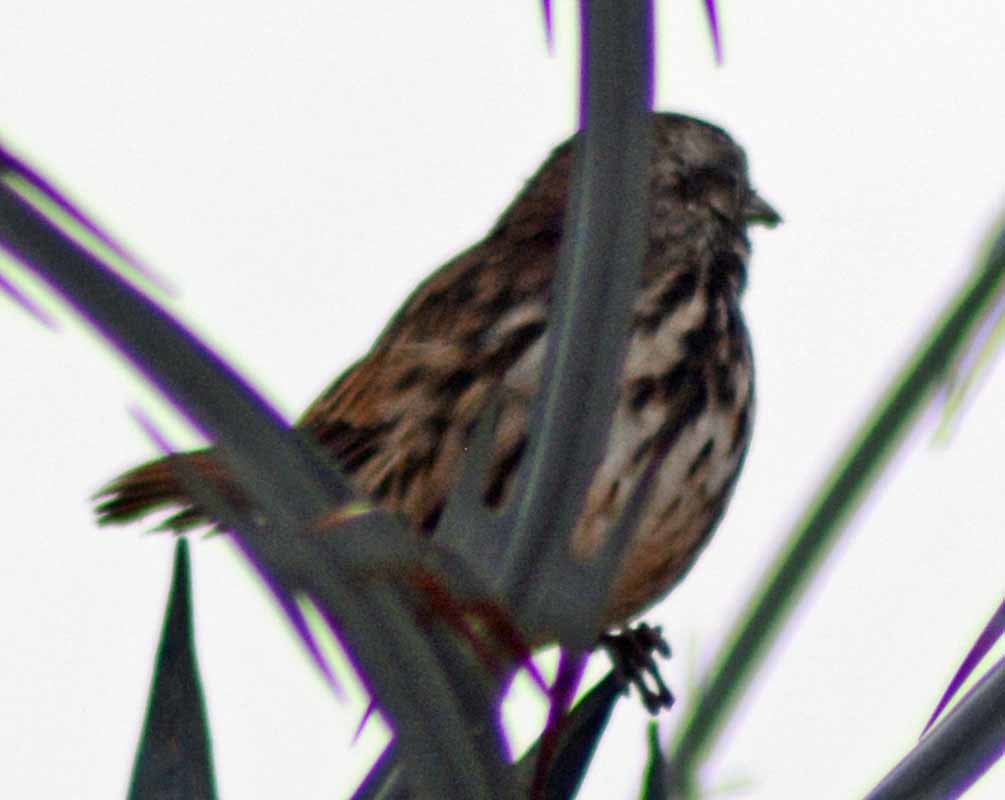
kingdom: Animalia
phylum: Chordata
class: Aves
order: Passeriformes
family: Passerellidae
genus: Melospiza
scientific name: Melospiza melodia
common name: Song sparrow
